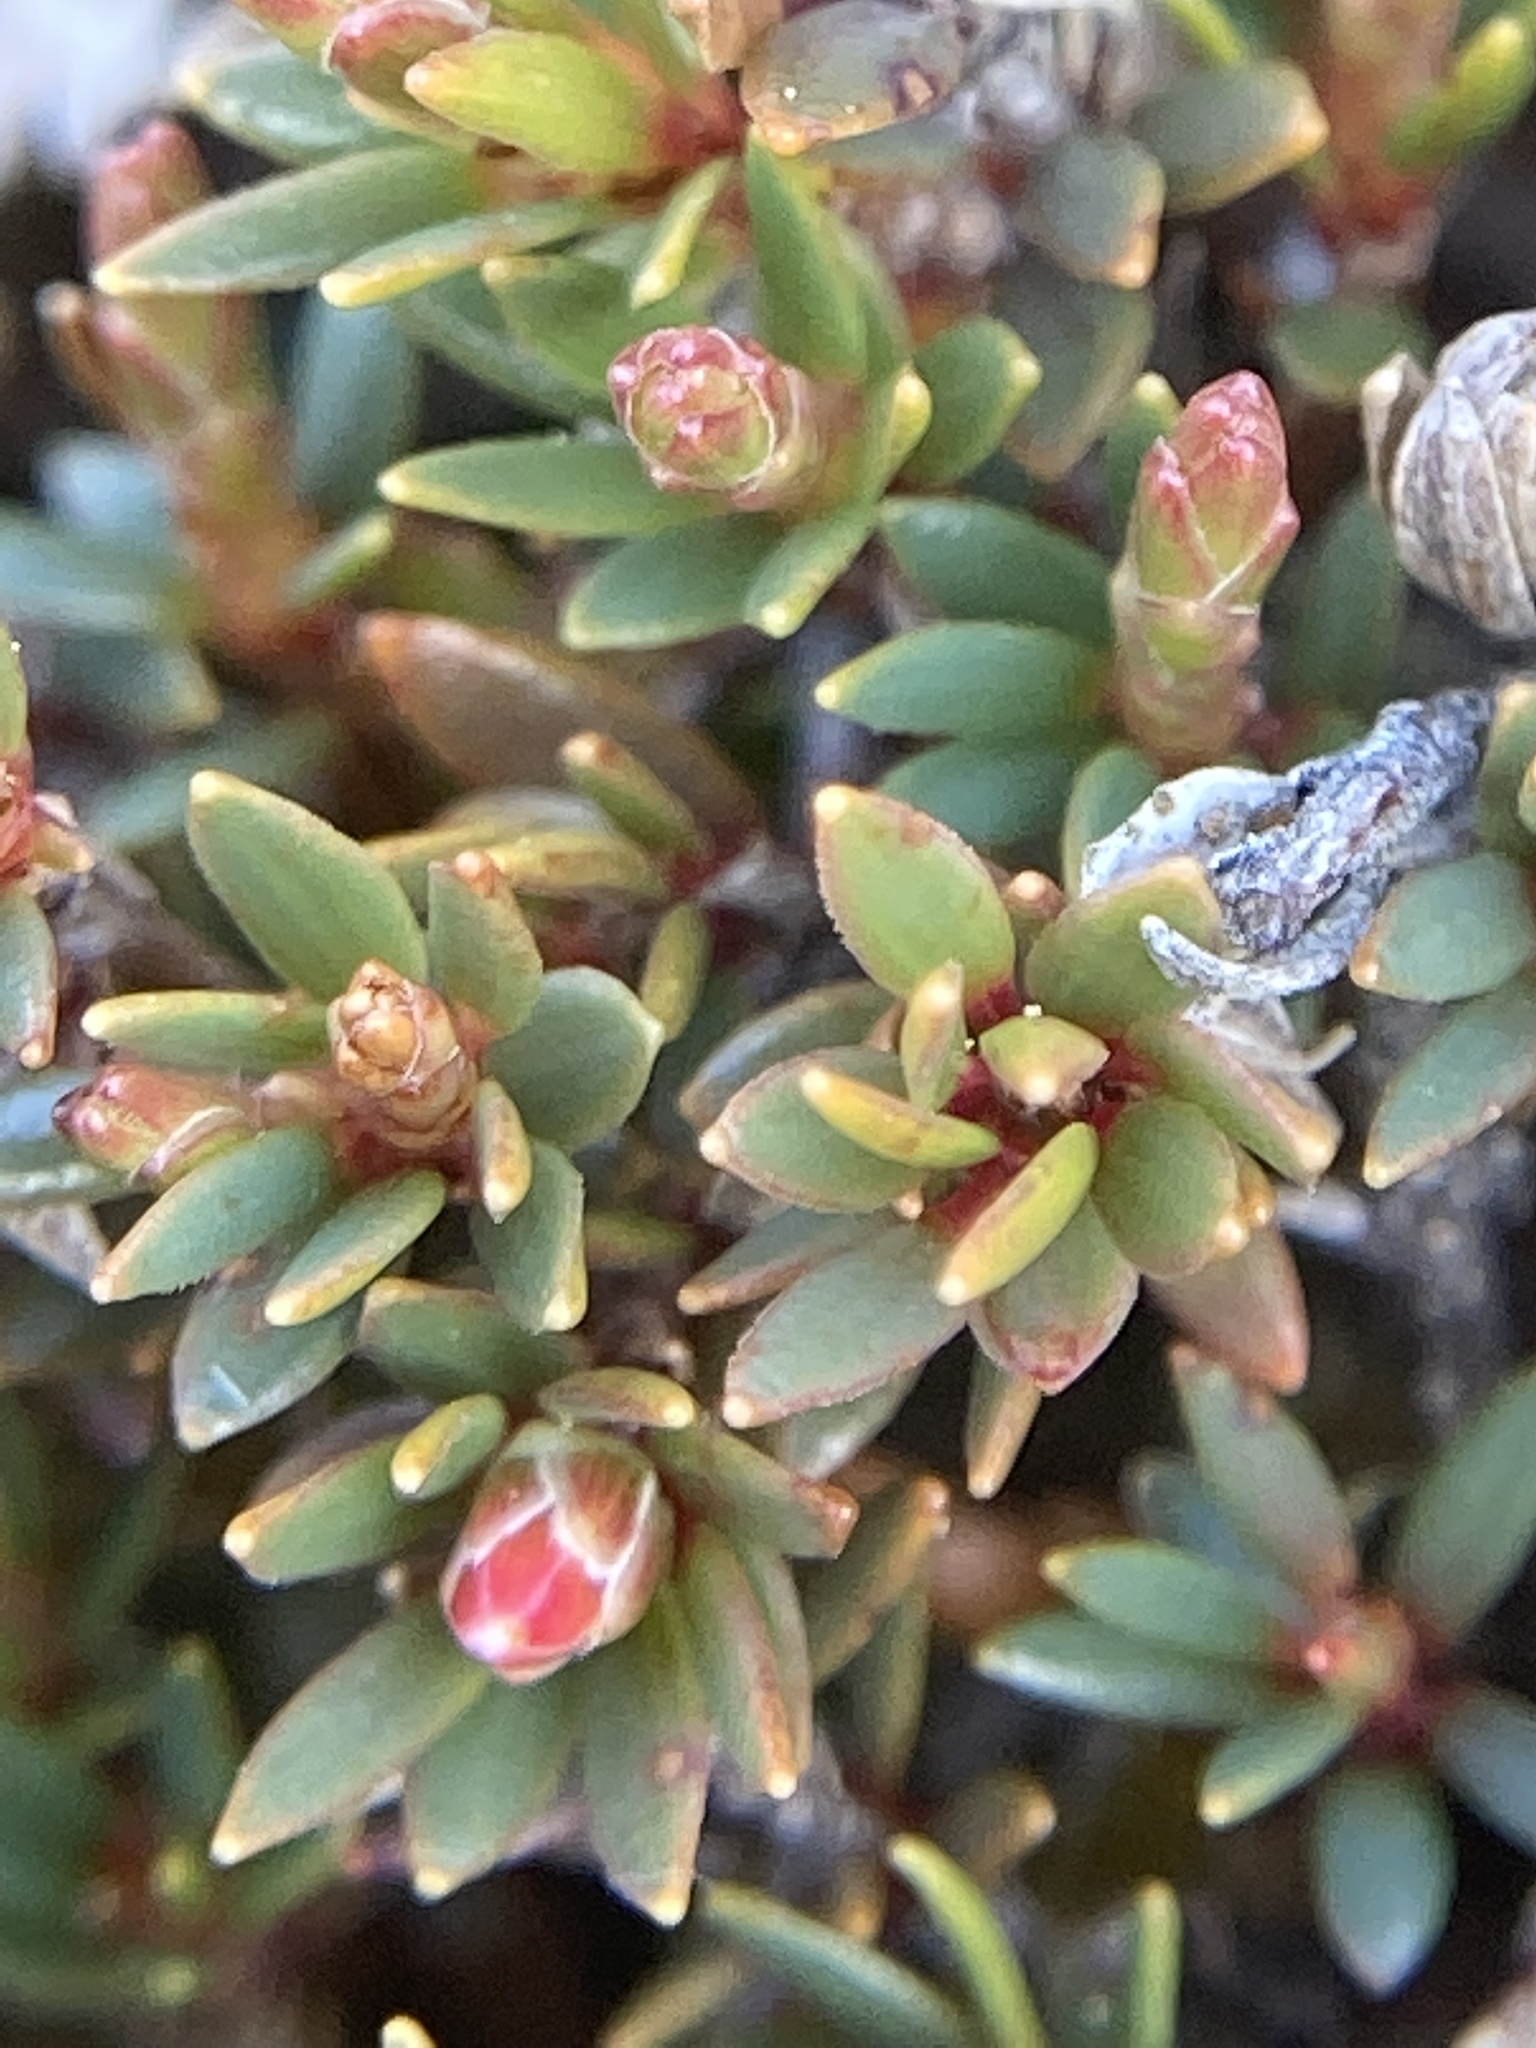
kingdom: Plantae
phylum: Tracheophyta
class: Magnoliopsida
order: Ericales
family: Ericaceae
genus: Pentachondra
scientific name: Pentachondra pumila
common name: Carpet-heath
